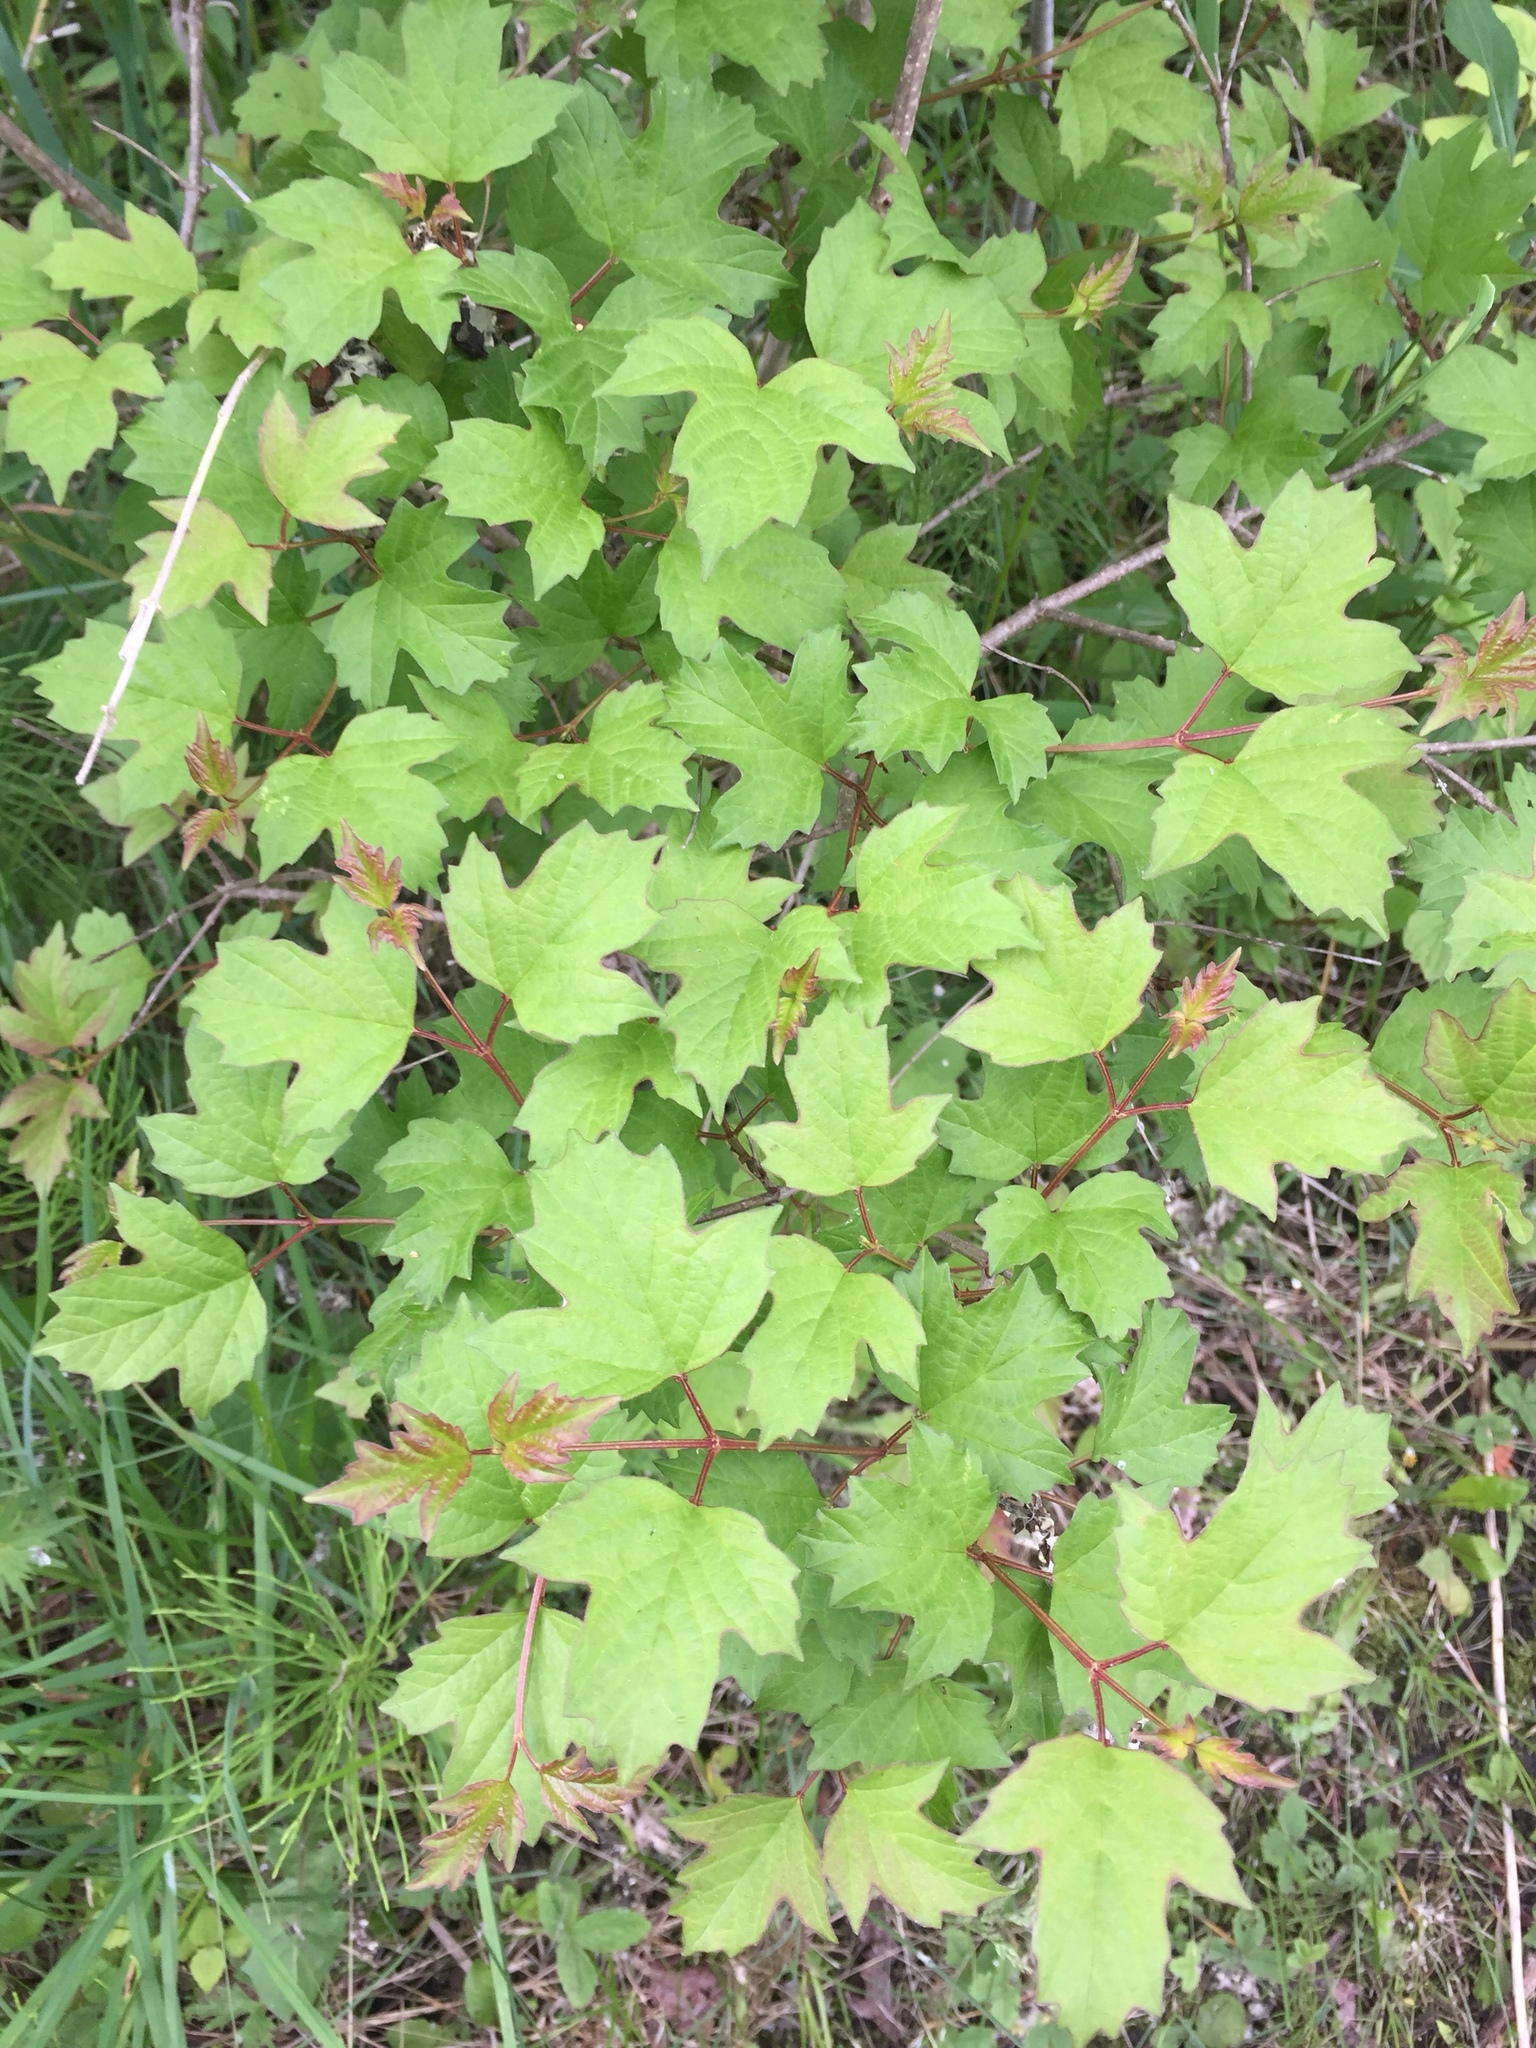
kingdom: Plantae
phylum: Tracheophyta
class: Magnoliopsida
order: Dipsacales
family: Viburnaceae
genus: Viburnum
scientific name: Viburnum opulus
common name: Guelder-rose
